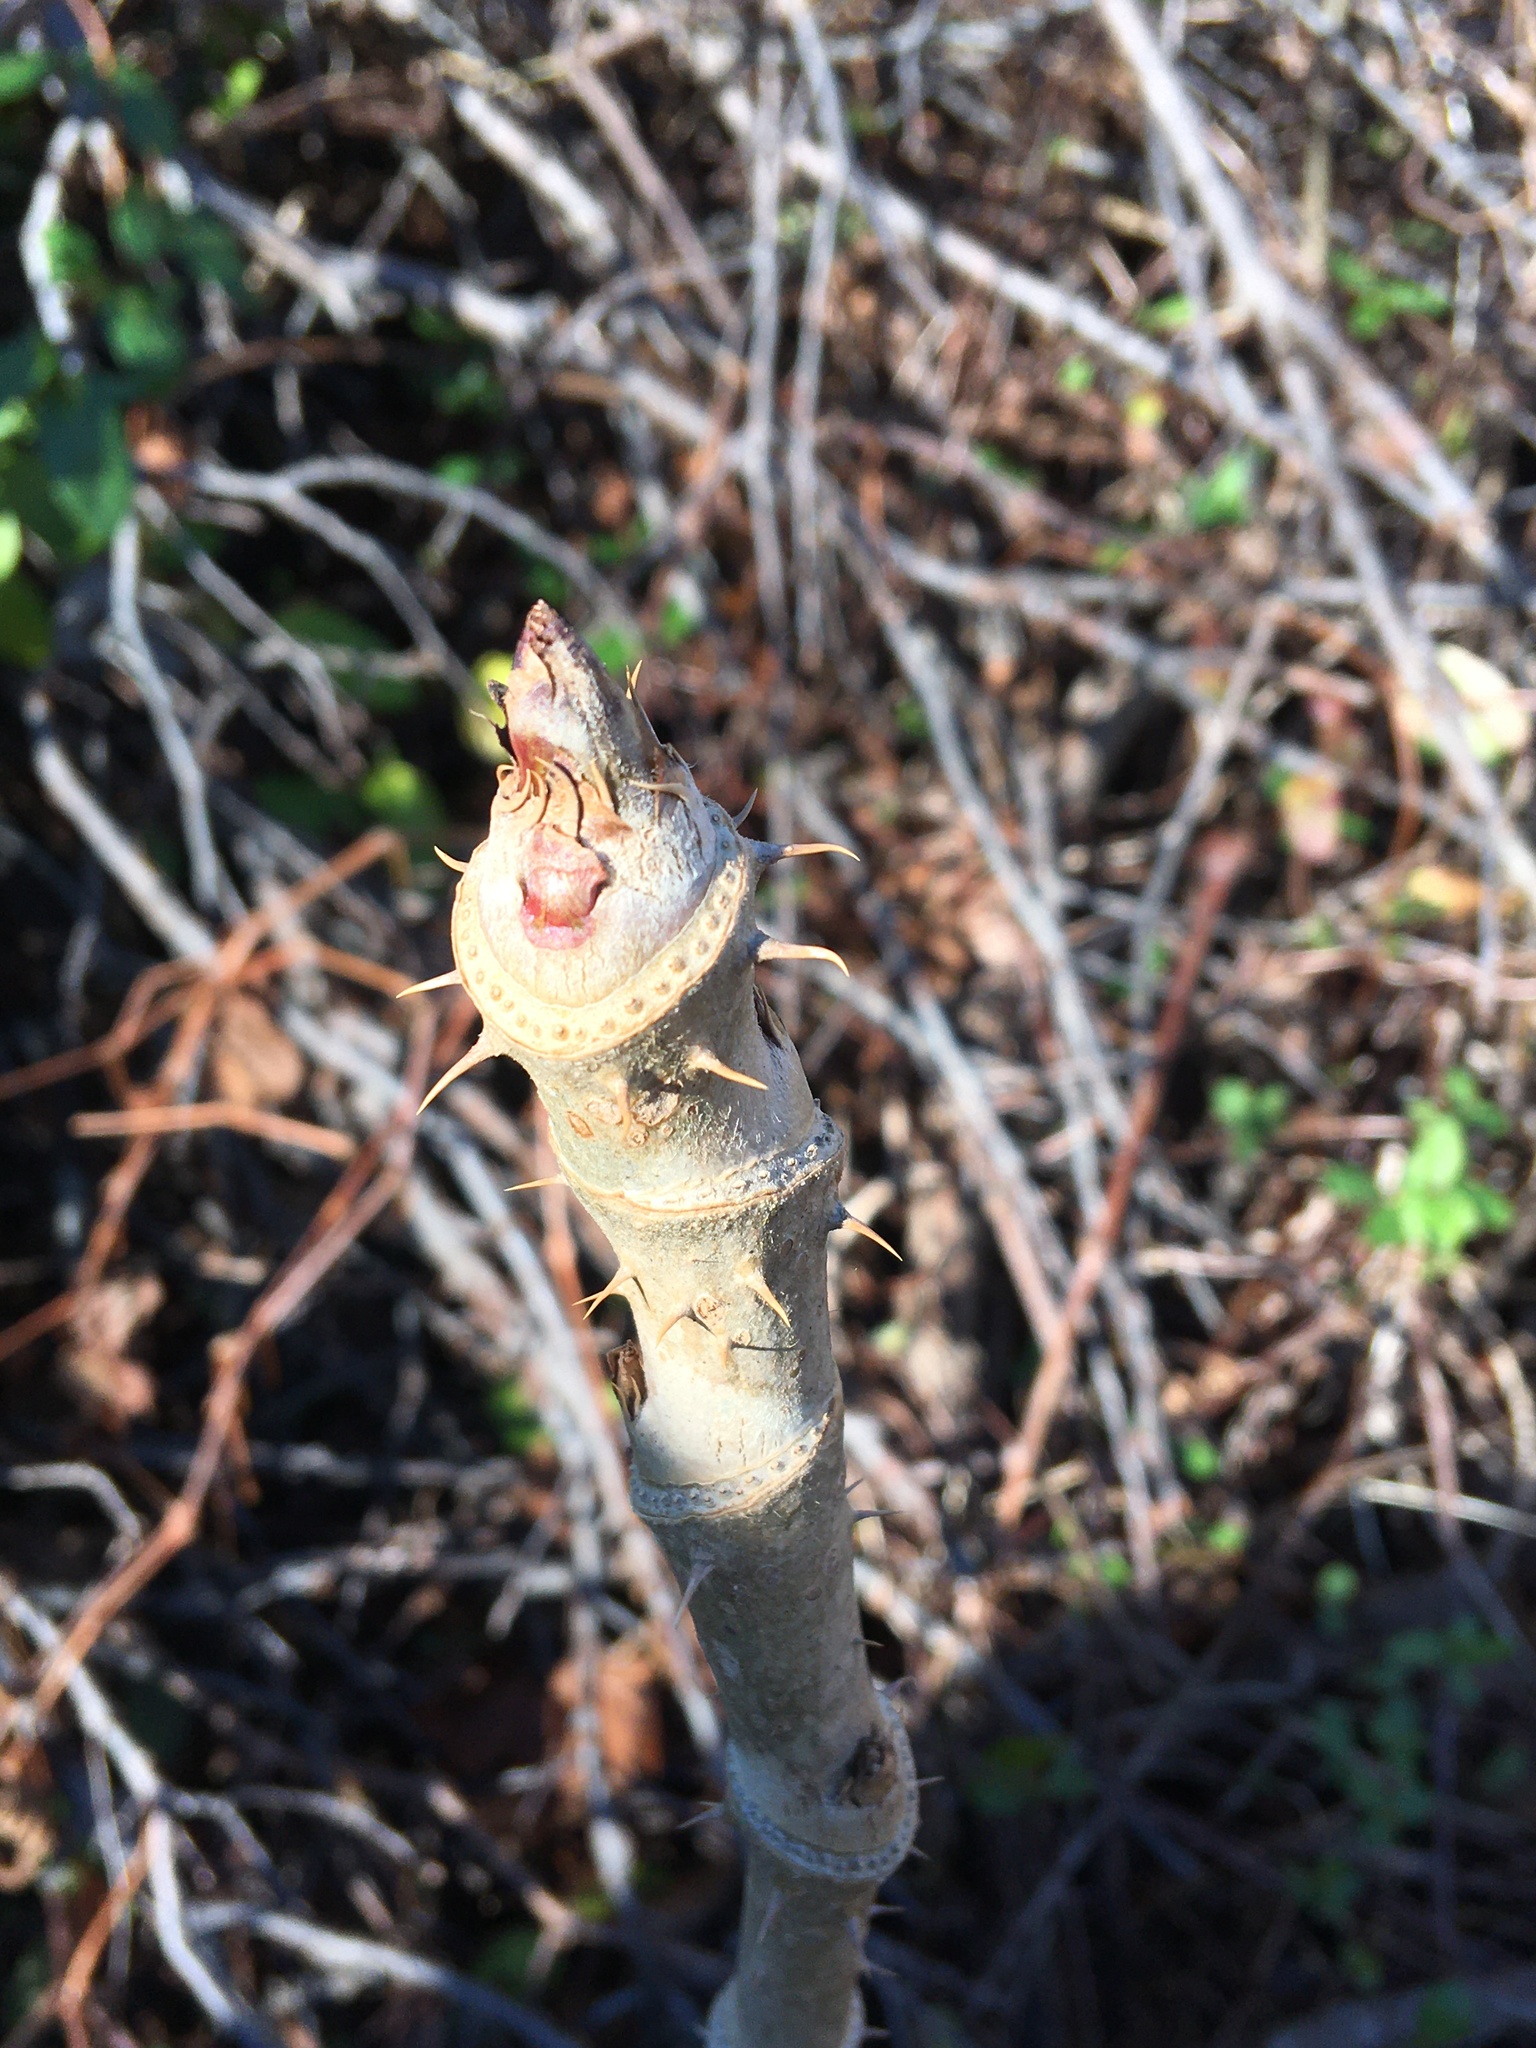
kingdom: Plantae
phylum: Tracheophyta
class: Magnoliopsida
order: Apiales
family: Araliaceae
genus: Aralia
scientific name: Aralia elata
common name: Japanese angelica-tree
